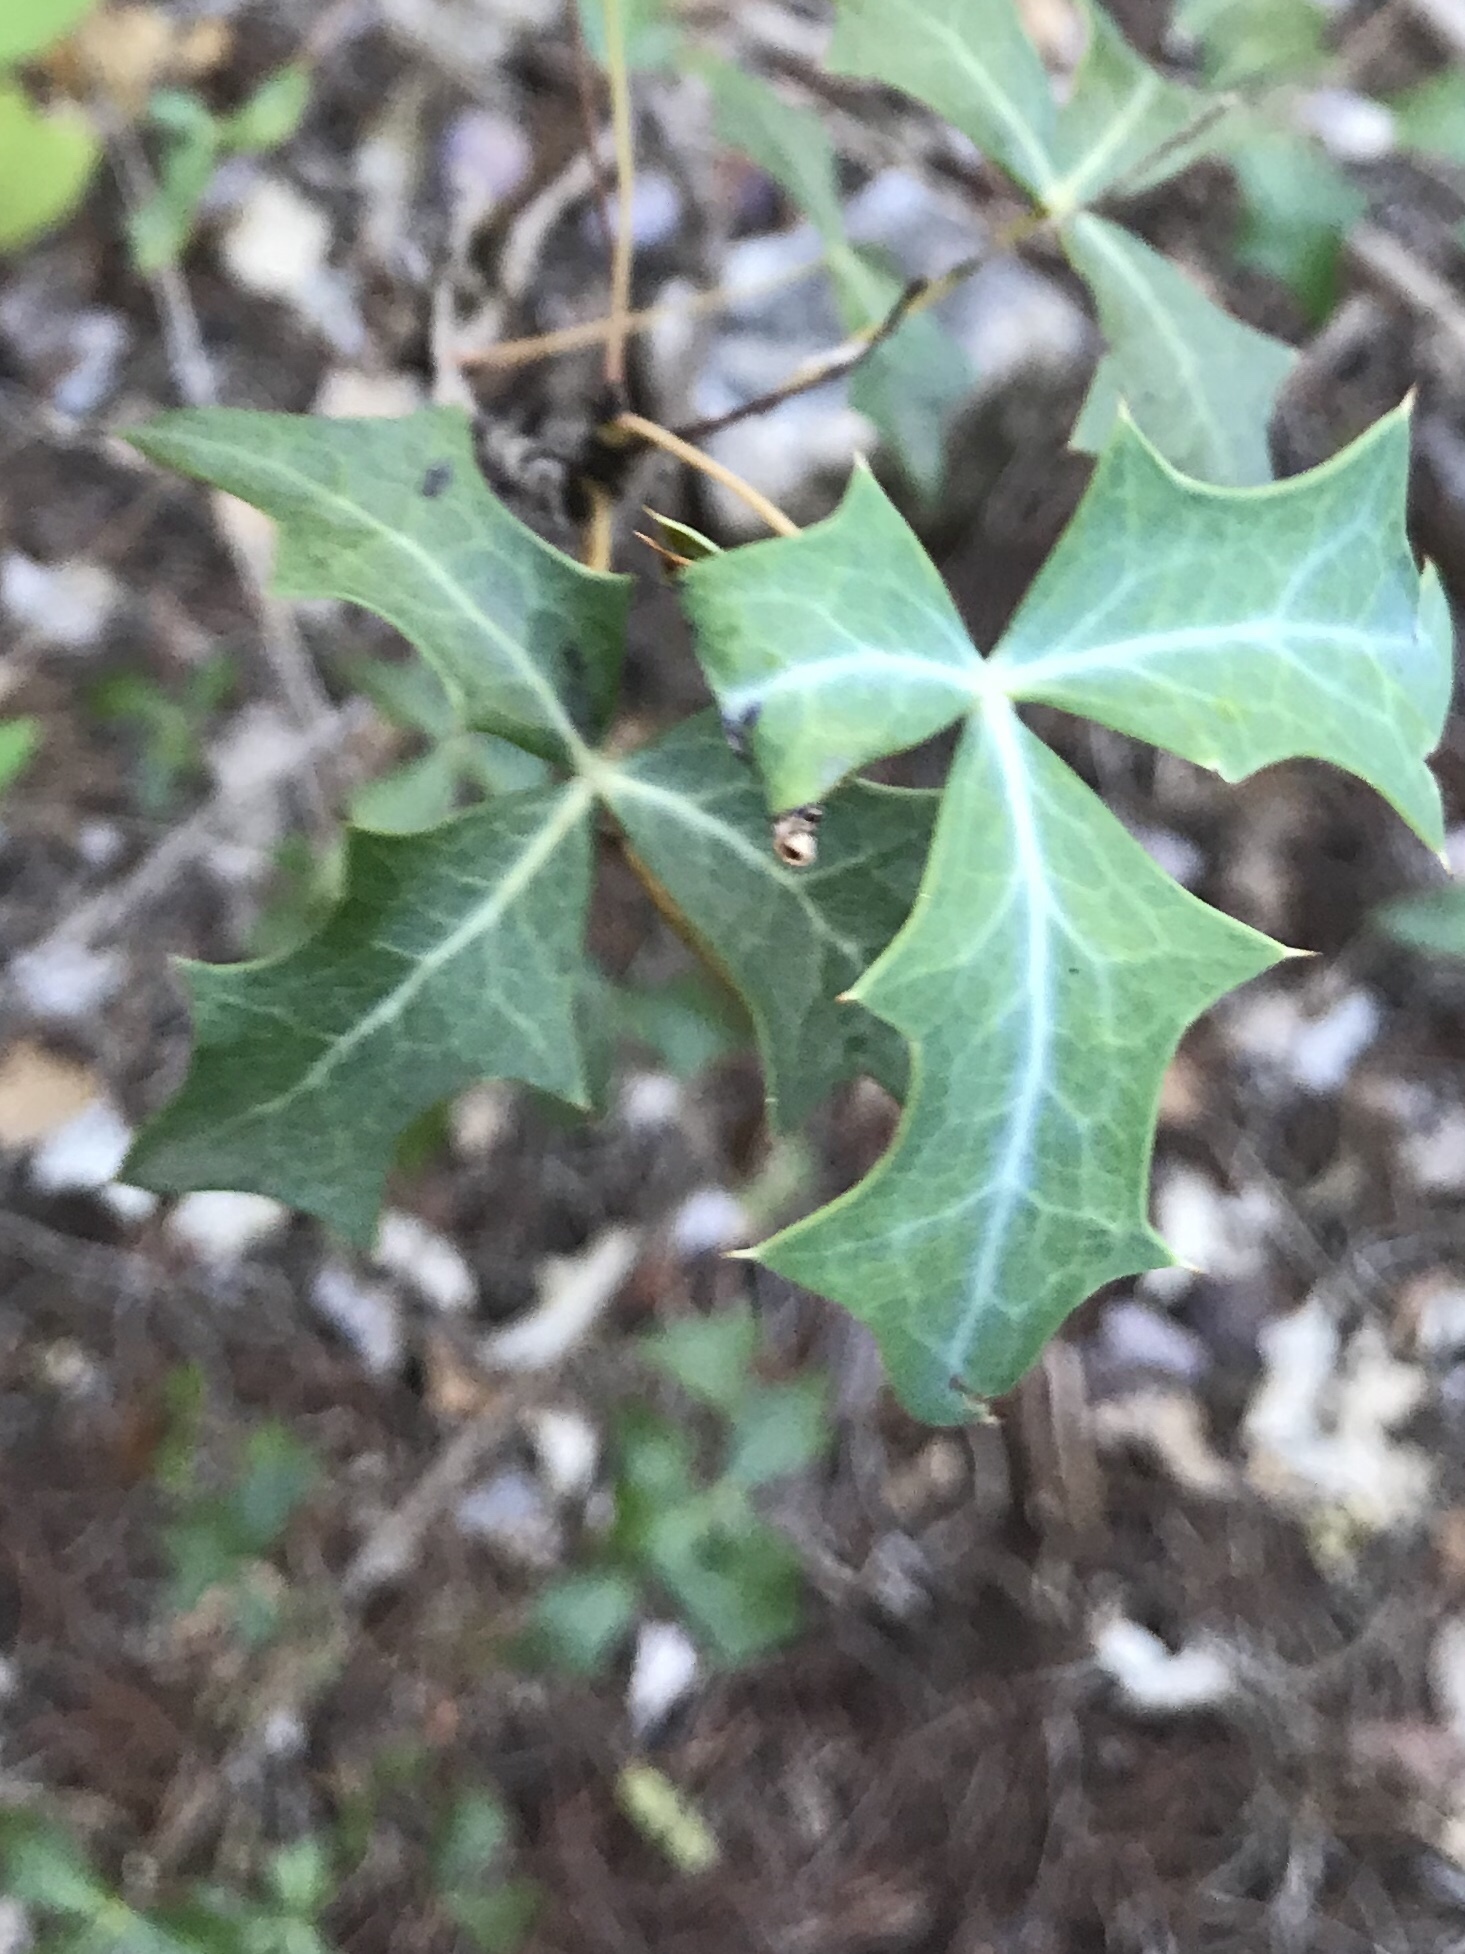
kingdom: Plantae
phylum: Tracheophyta
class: Magnoliopsida
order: Ranunculales
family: Berberidaceae
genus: Alloberberis
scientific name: Alloberberis trifoliolata
